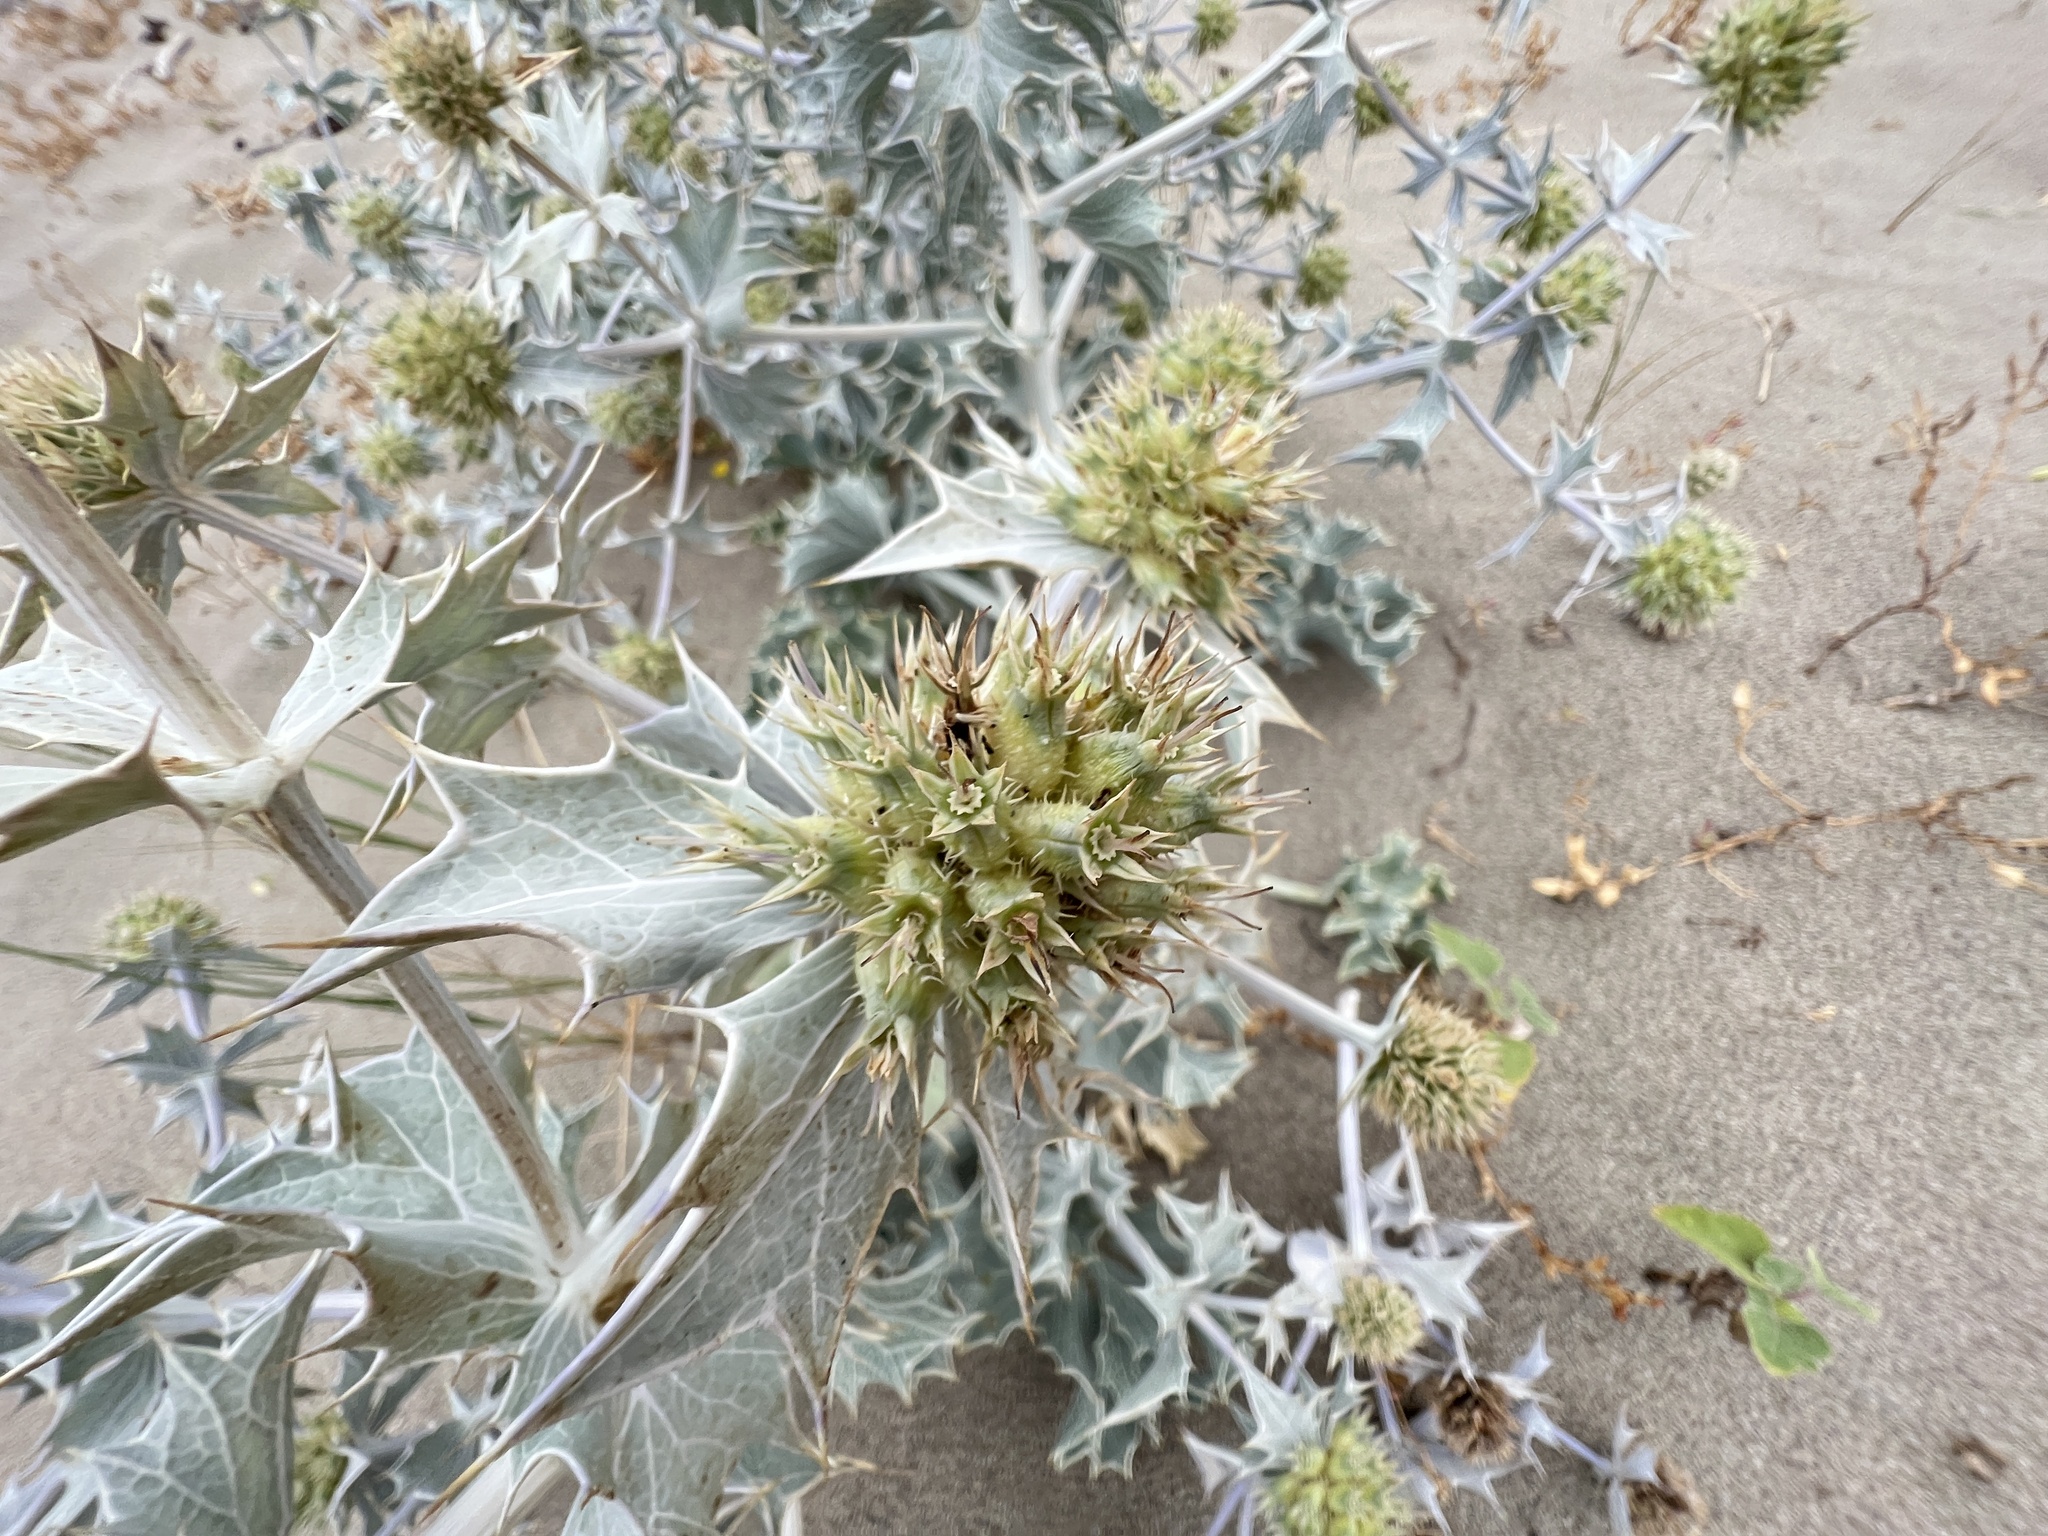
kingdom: Plantae
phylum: Tracheophyta
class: Magnoliopsida
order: Apiales
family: Apiaceae
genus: Eryngium
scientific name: Eryngium maritimum
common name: Sea-holly
